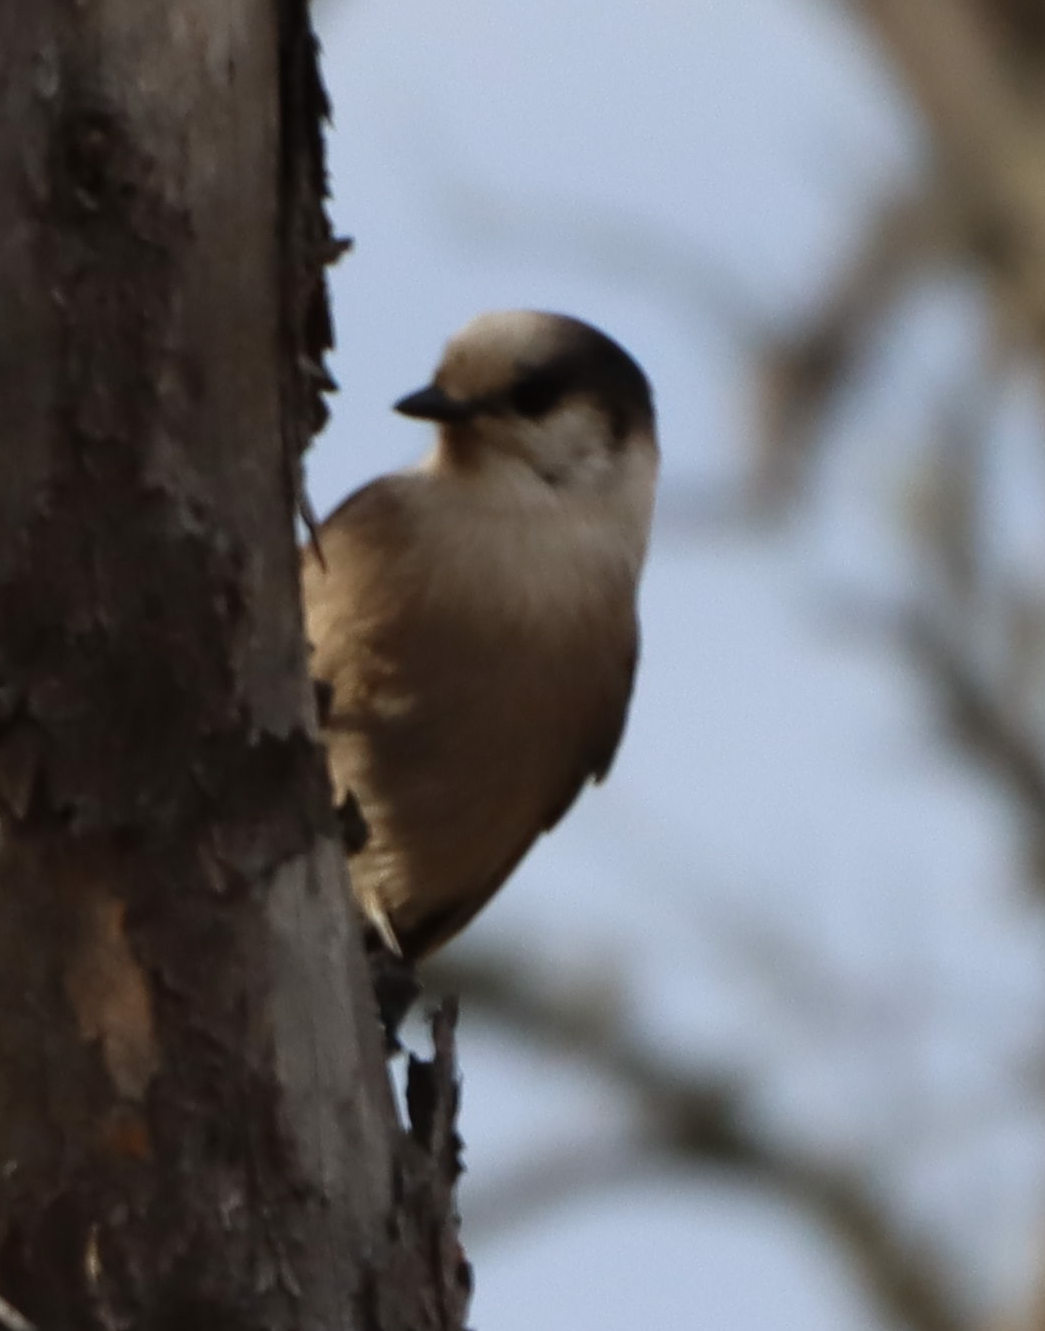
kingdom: Animalia
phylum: Chordata
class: Aves
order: Passeriformes
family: Corvidae
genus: Perisoreus
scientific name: Perisoreus canadensis
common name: Gray jay
